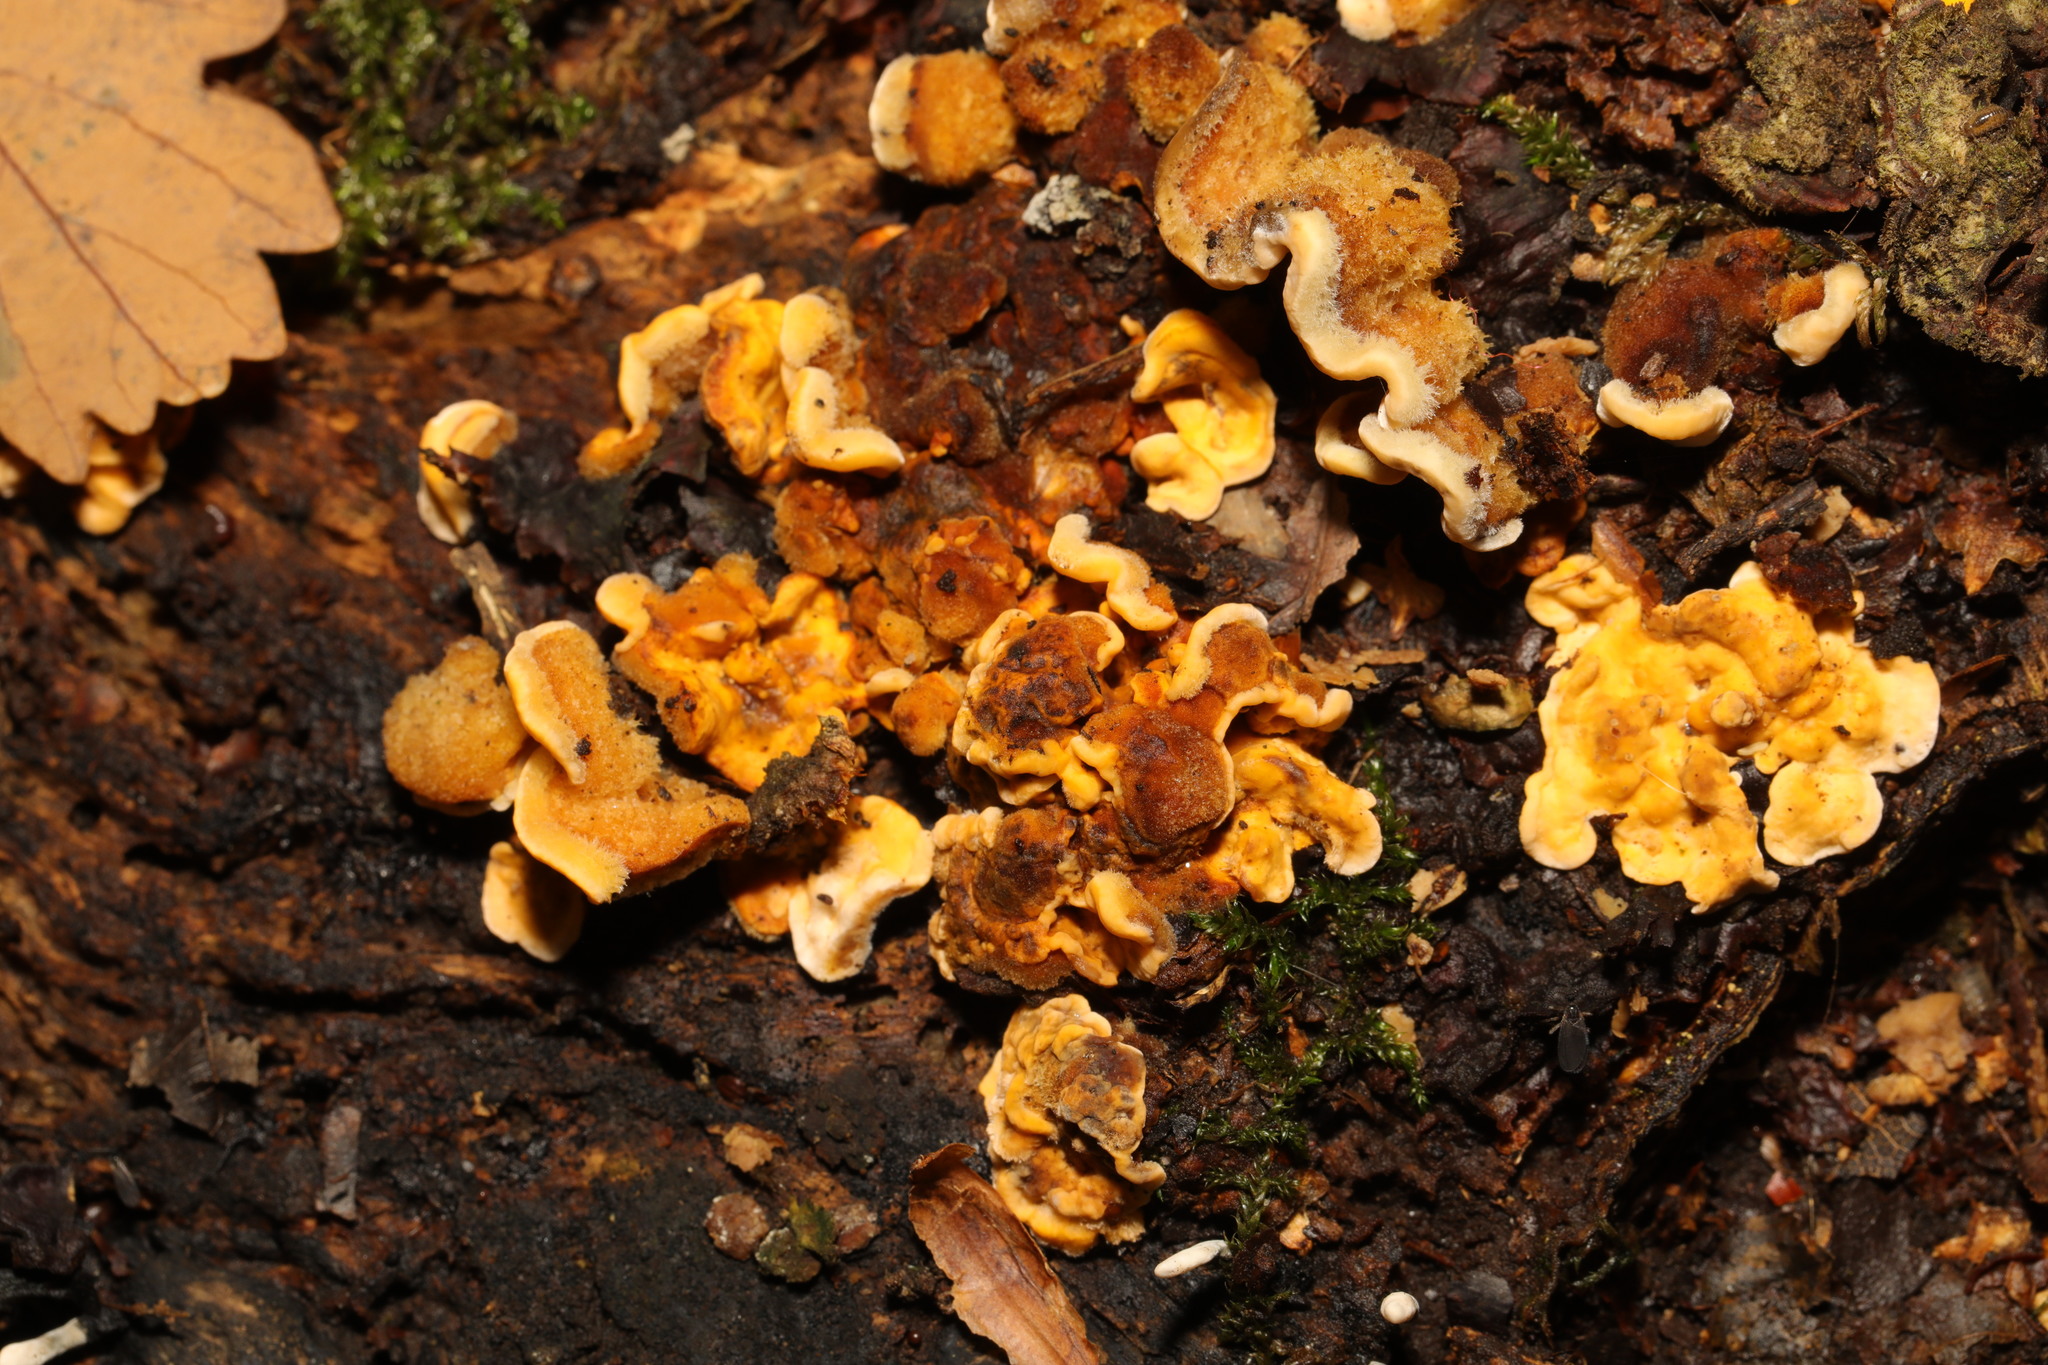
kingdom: Fungi
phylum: Basidiomycota
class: Agaricomycetes
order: Russulales
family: Stereaceae
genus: Stereum
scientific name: Stereum hirsutum
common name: Hairy curtain crust
